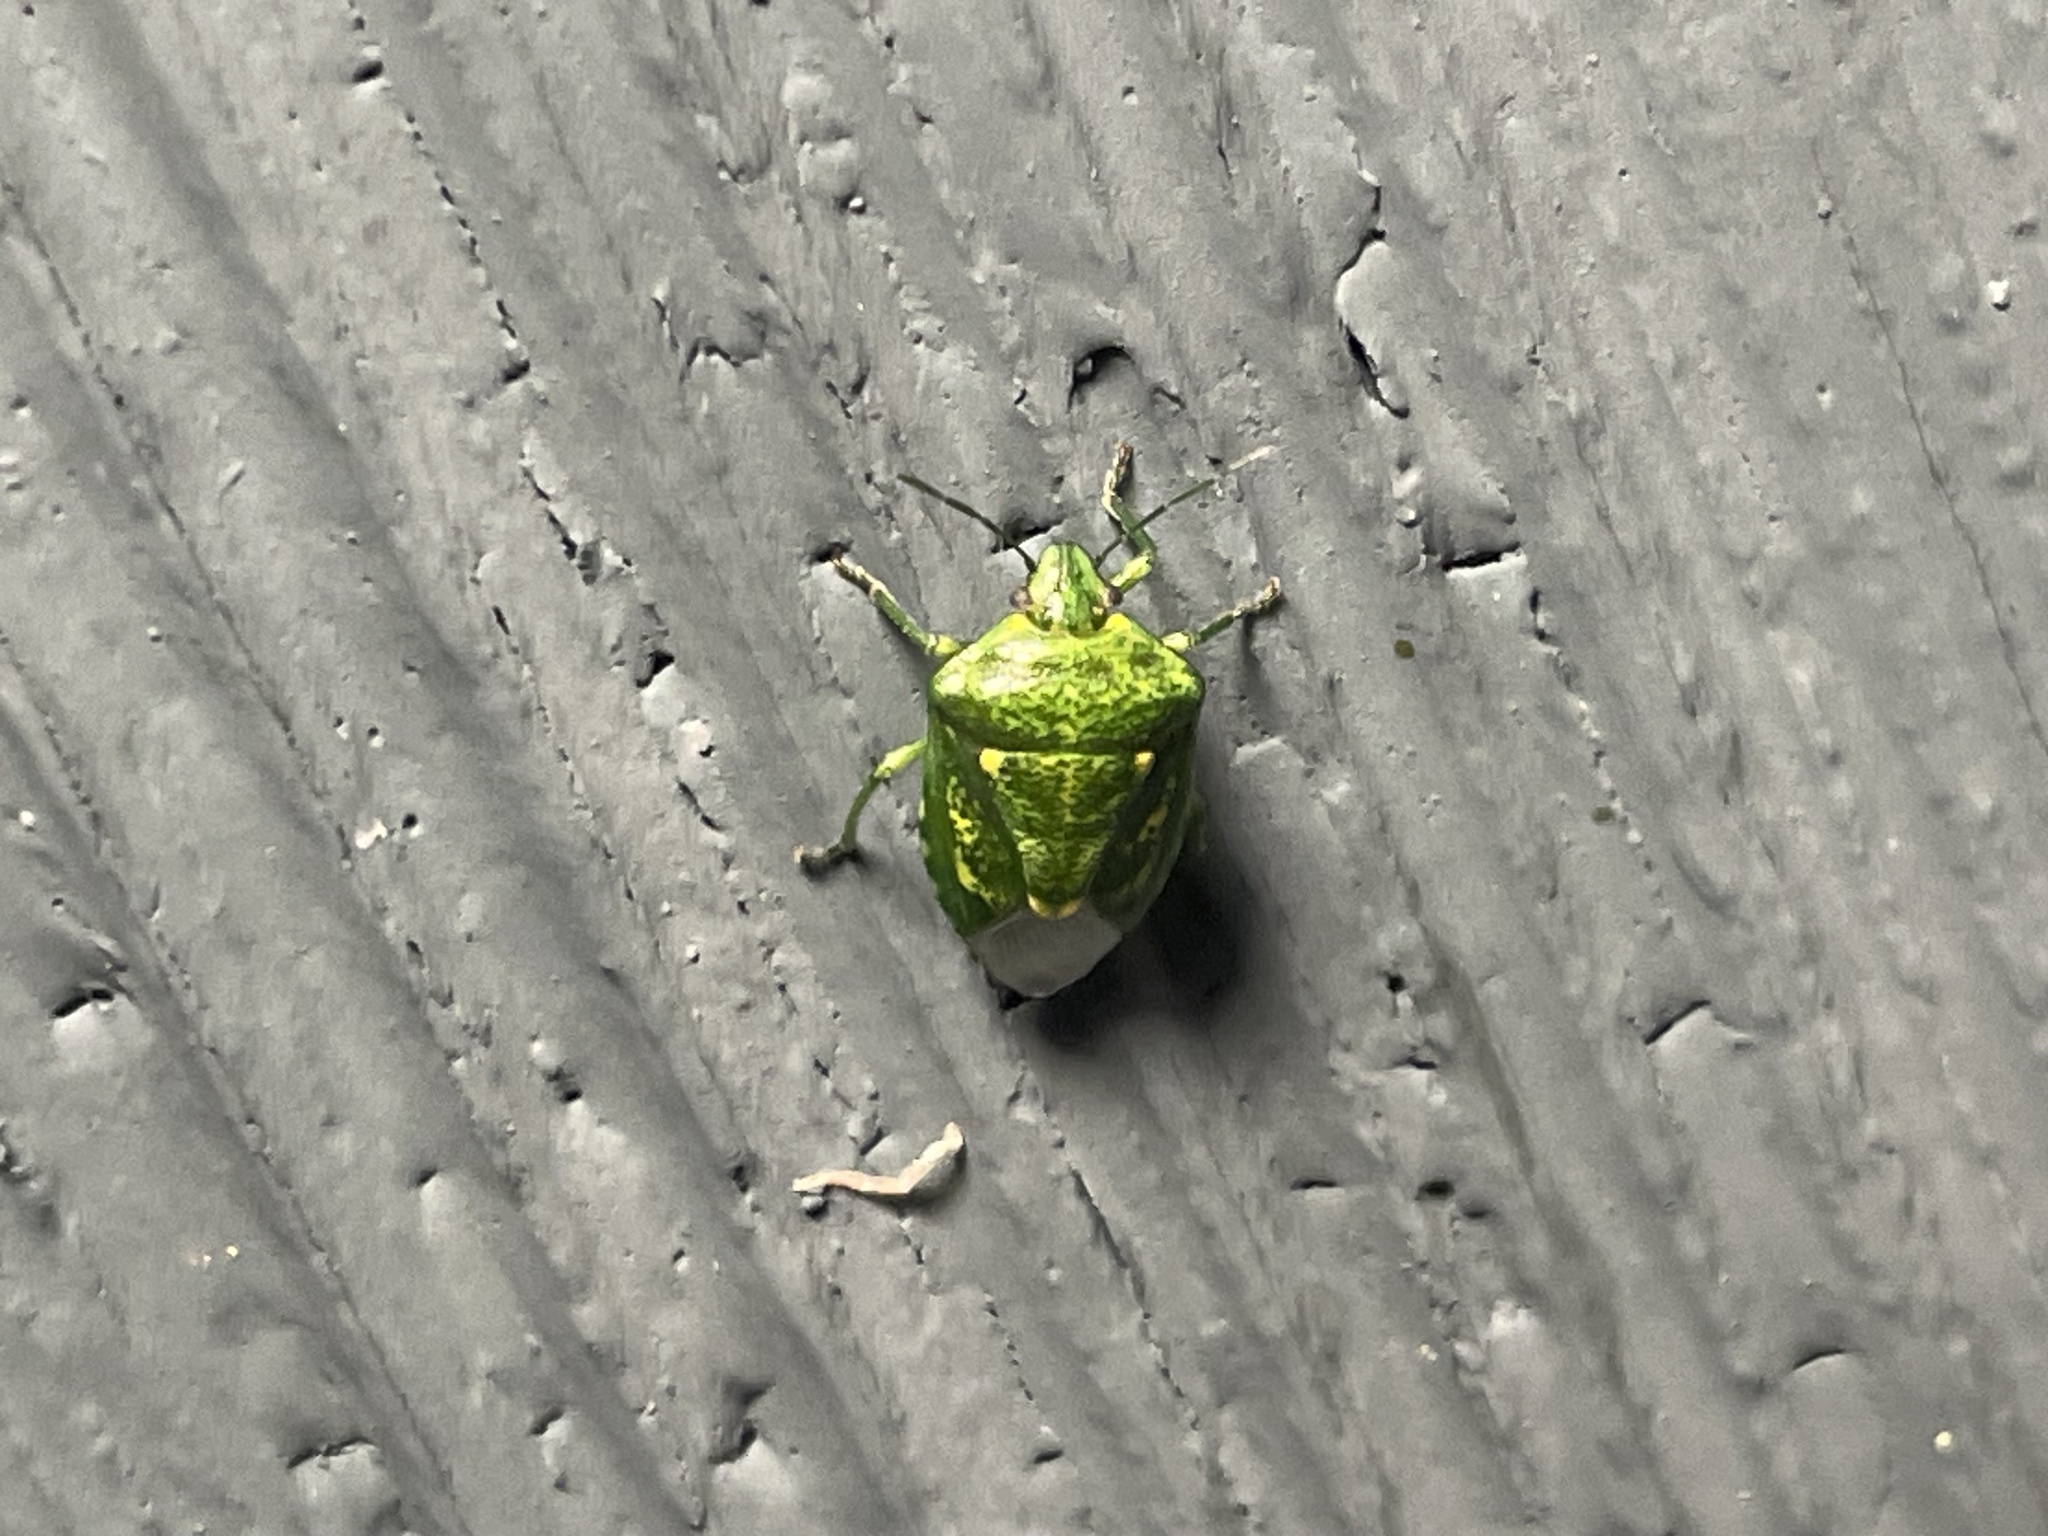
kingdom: Animalia
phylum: Arthropoda
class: Insecta
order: Hemiptera
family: Pentatomidae
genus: Banasa
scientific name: Banasa euchlora
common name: Cedar berry bug
